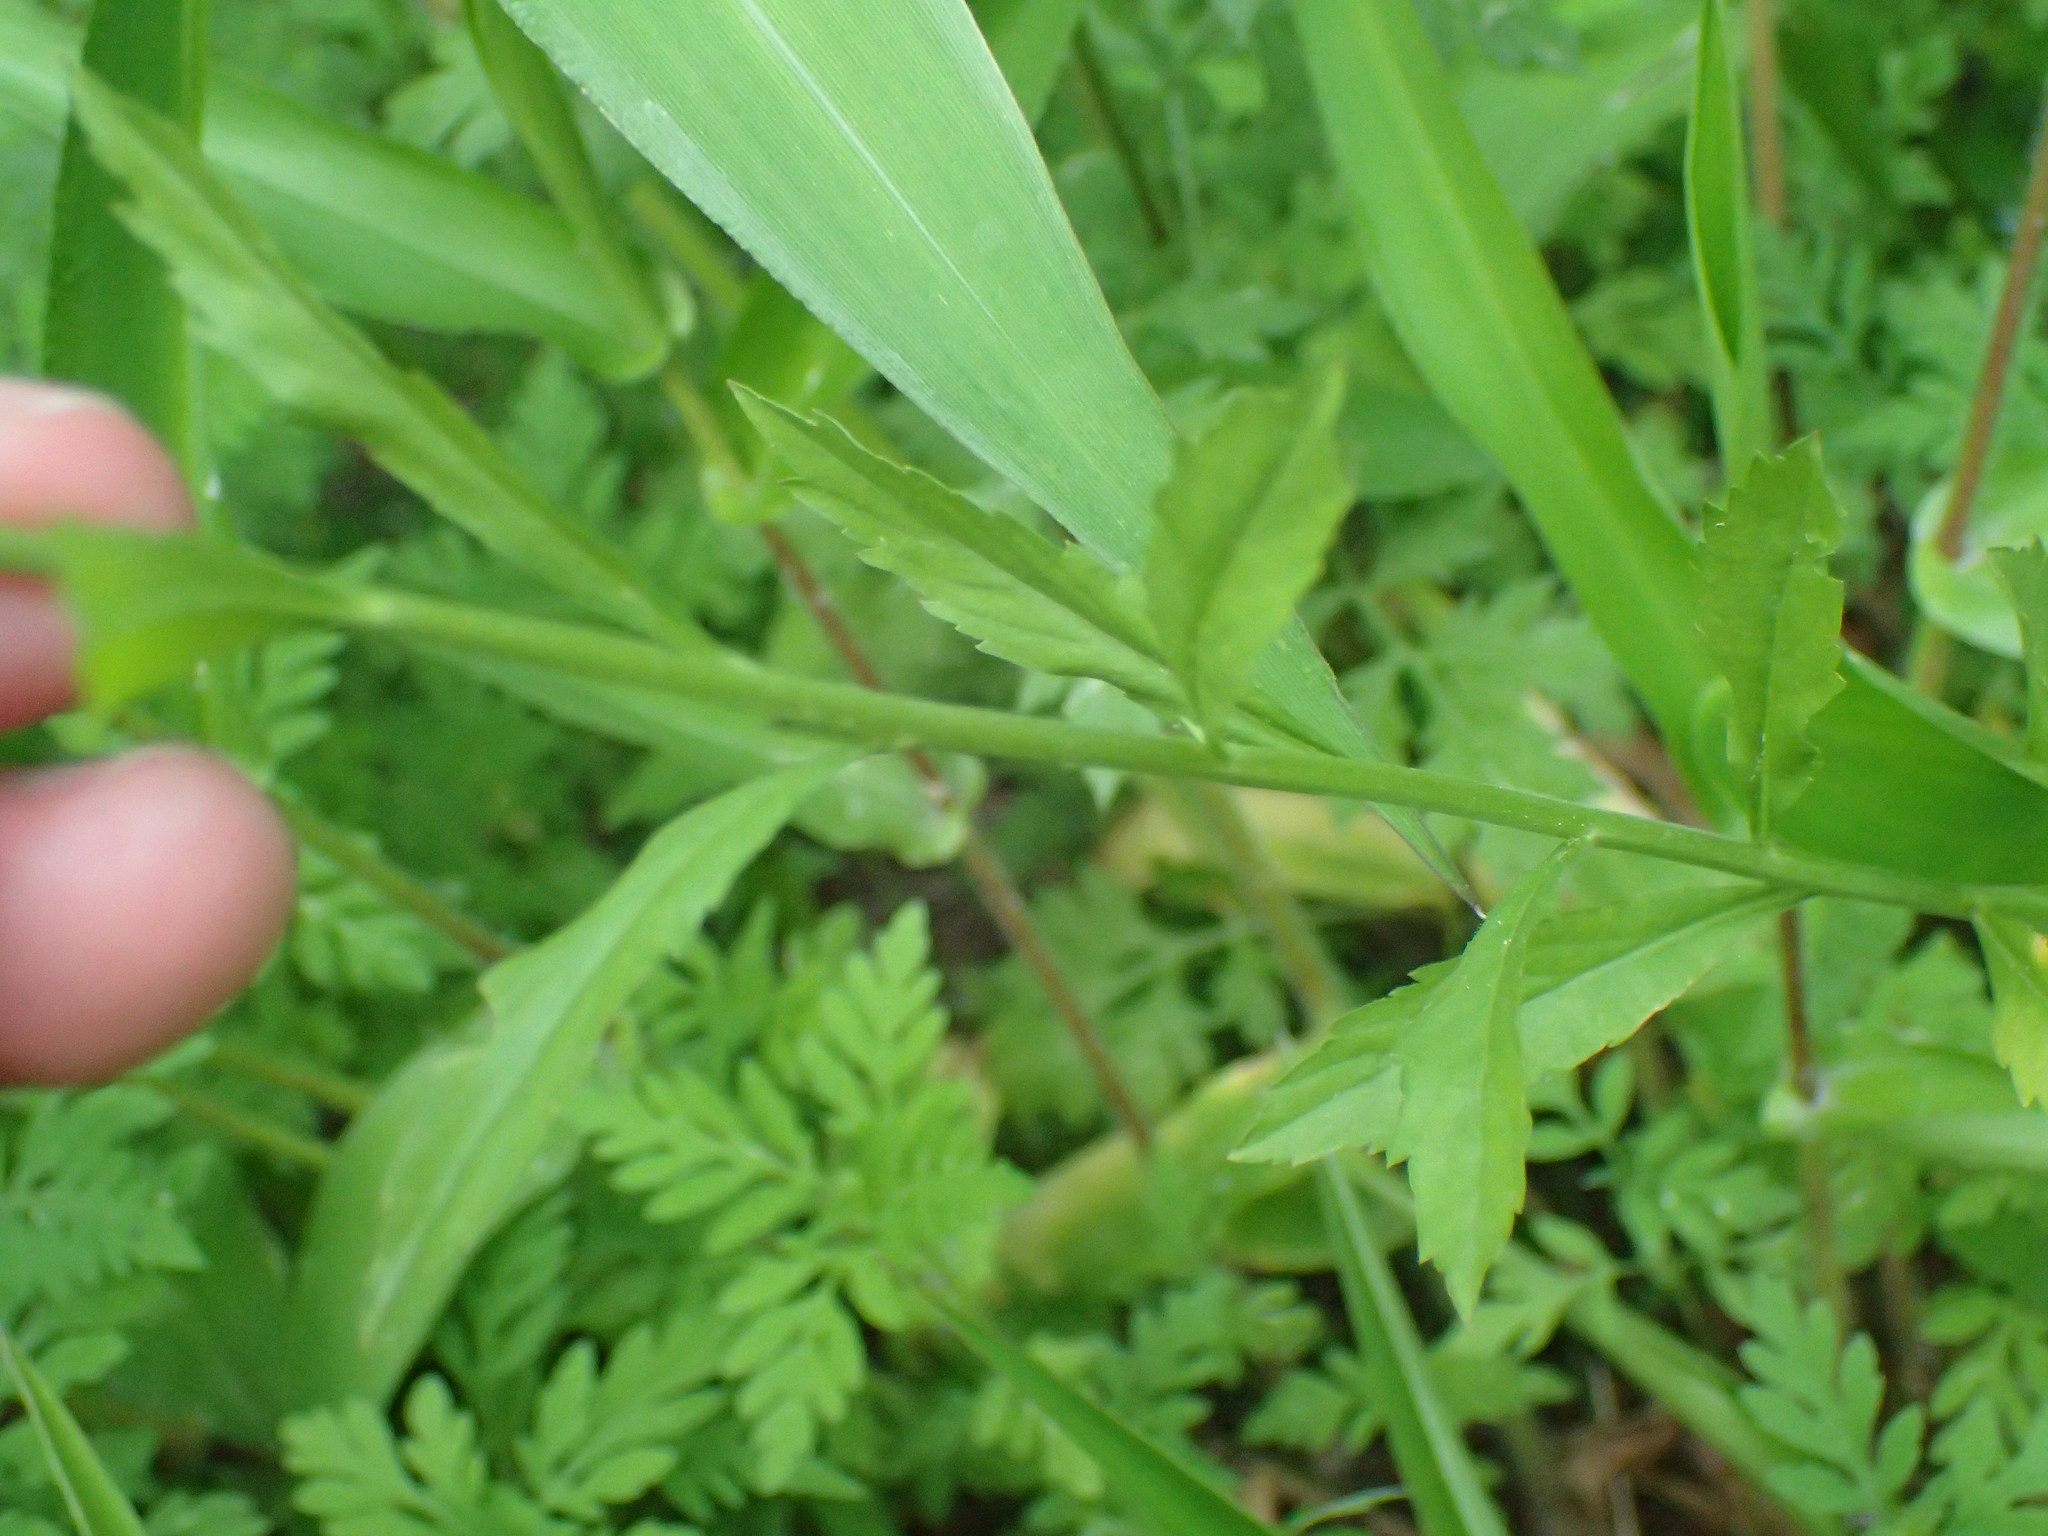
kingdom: Plantae
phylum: Tracheophyta
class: Magnoliopsida
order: Brassicales
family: Brassicaceae
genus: Lepidium
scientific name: Lepidium virginicum
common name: Least pepperwort
